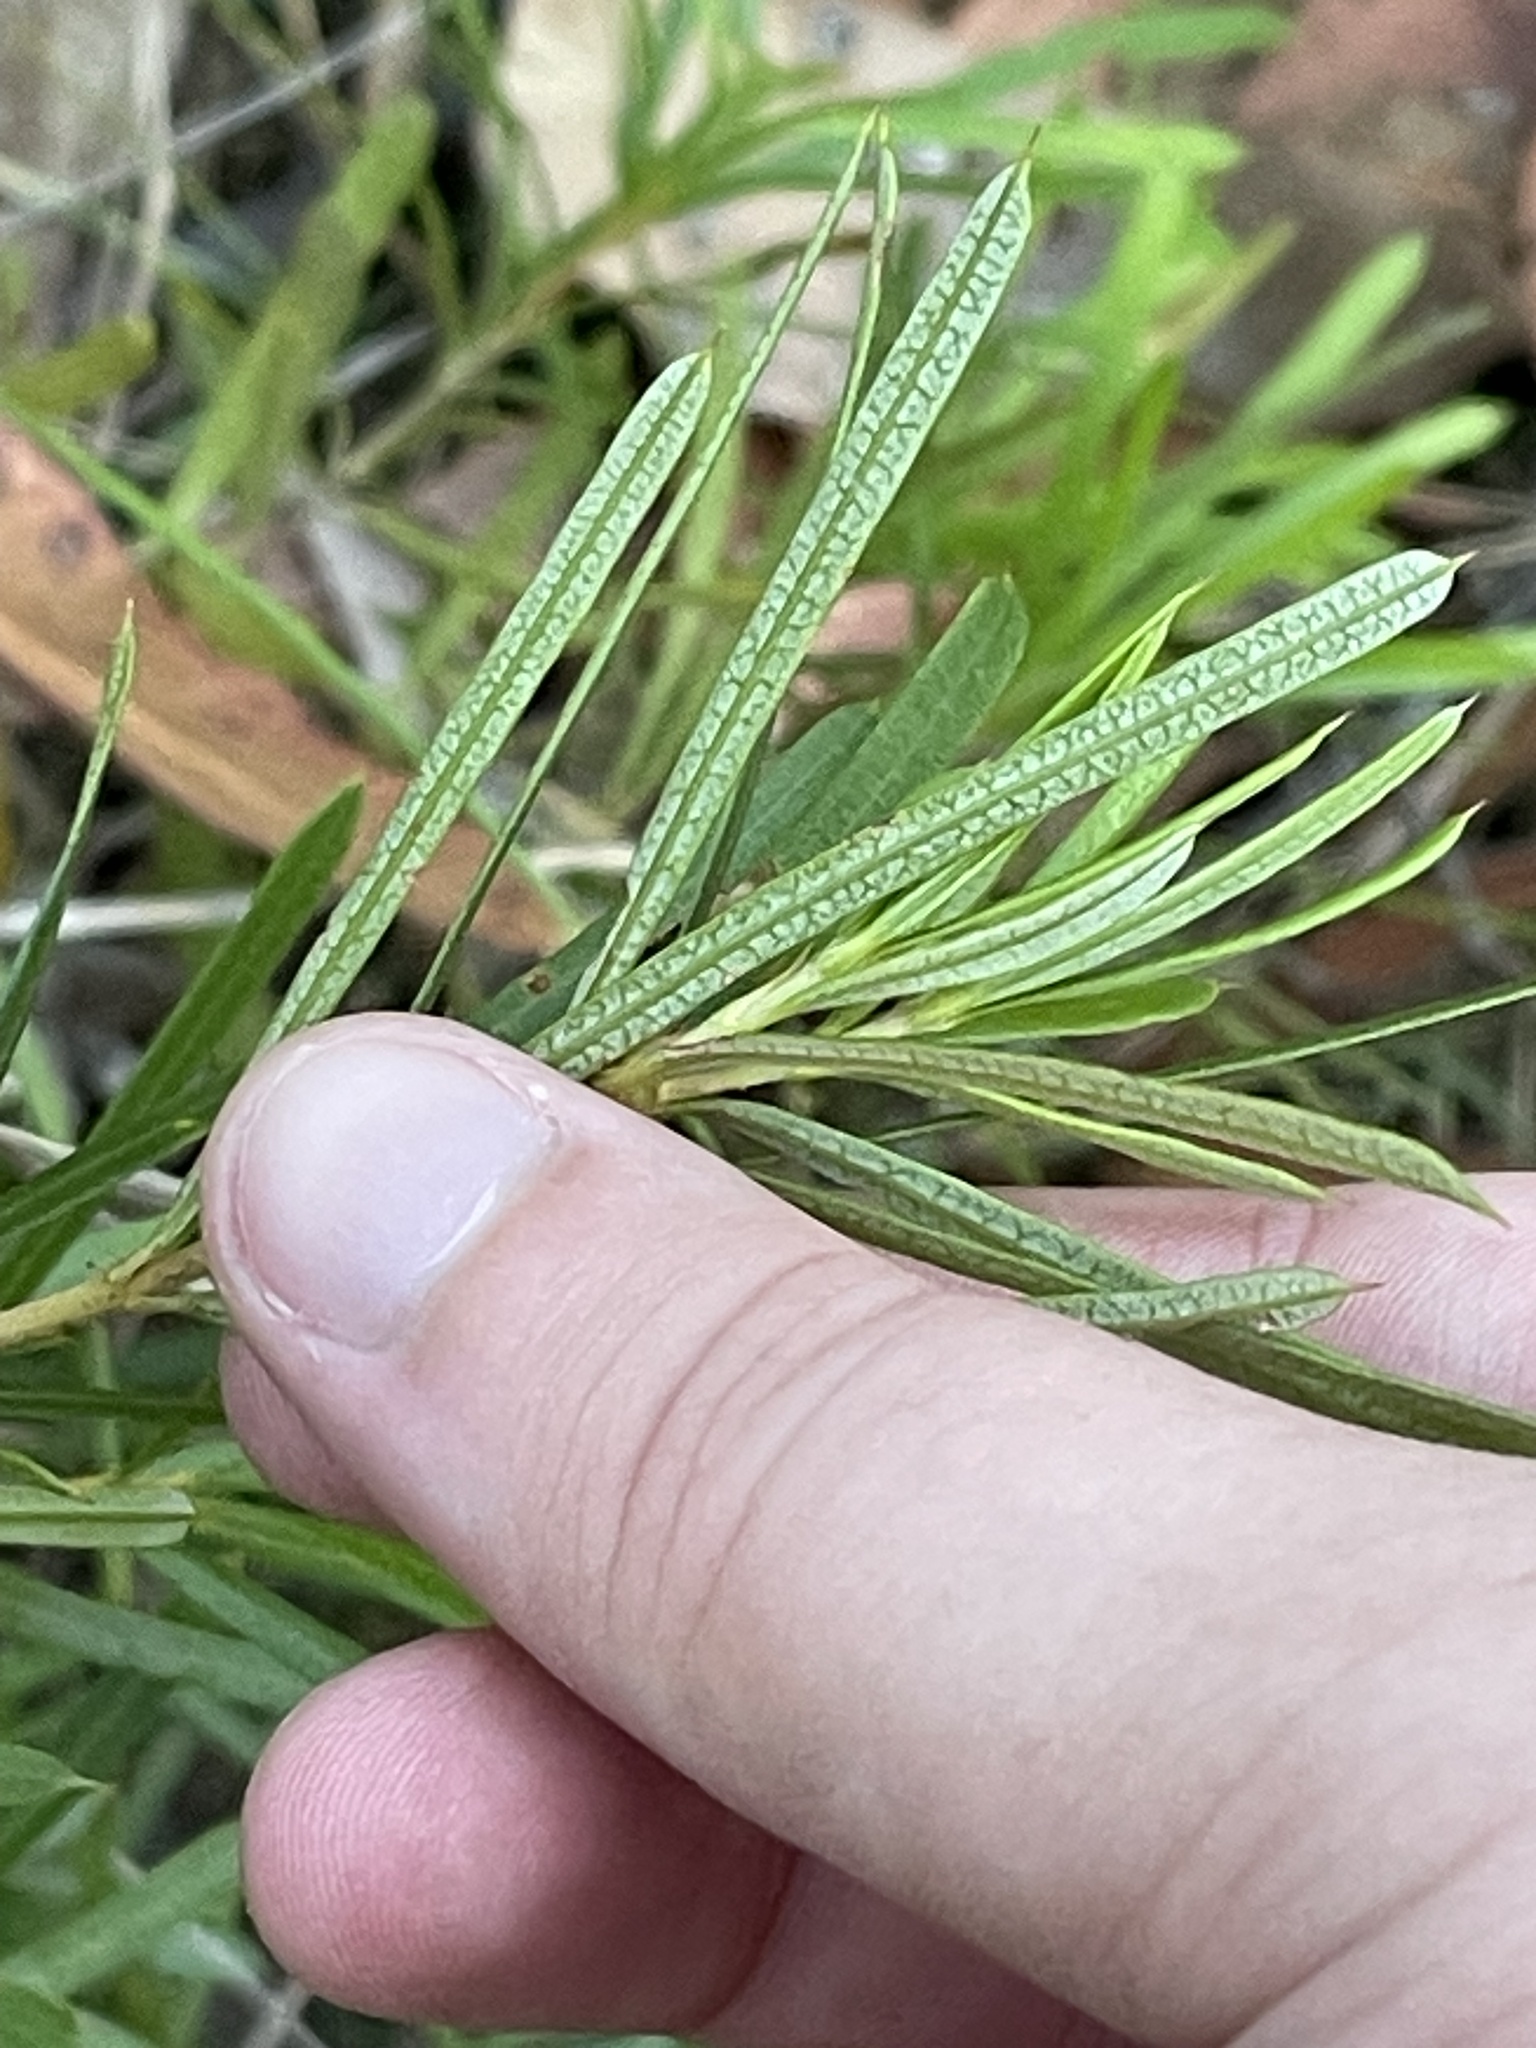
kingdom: Plantae
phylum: Tracheophyta
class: Magnoliopsida
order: Proteales
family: Proteaceae
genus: Lambertia
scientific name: Lambertia formosa
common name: Mountain-devil
